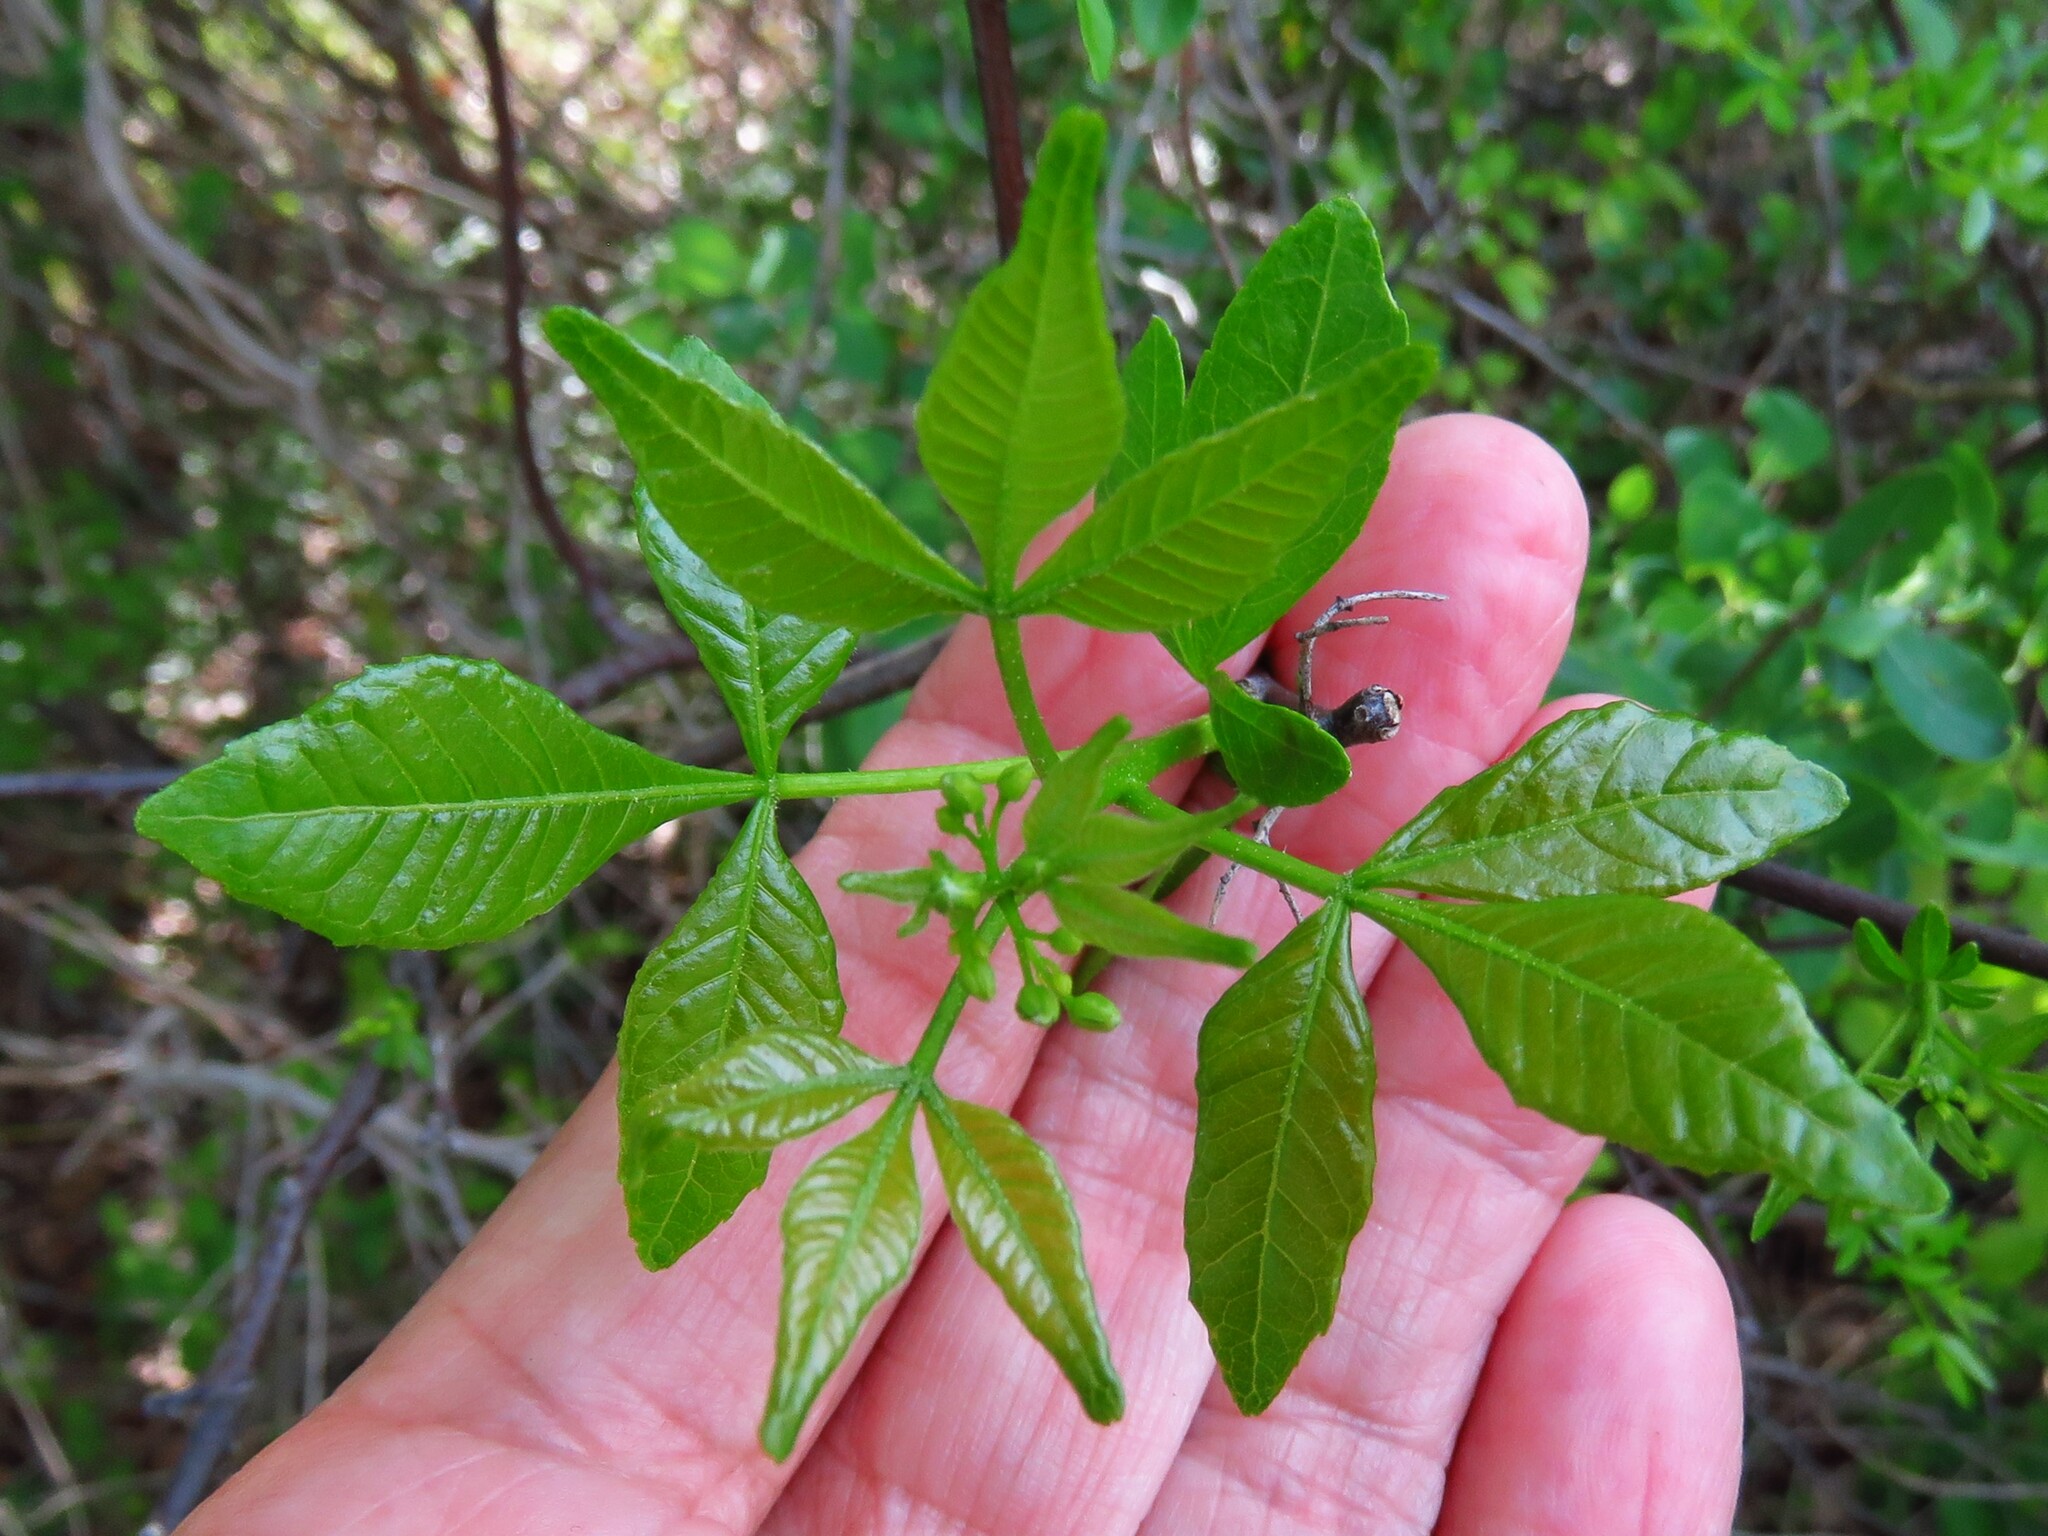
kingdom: Plantae
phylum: Tracheophyta
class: Magnoliopsida
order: Sapindales
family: Rutaceae
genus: Ptelea
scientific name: Ptelea trifoliata
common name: Common hop-tree
